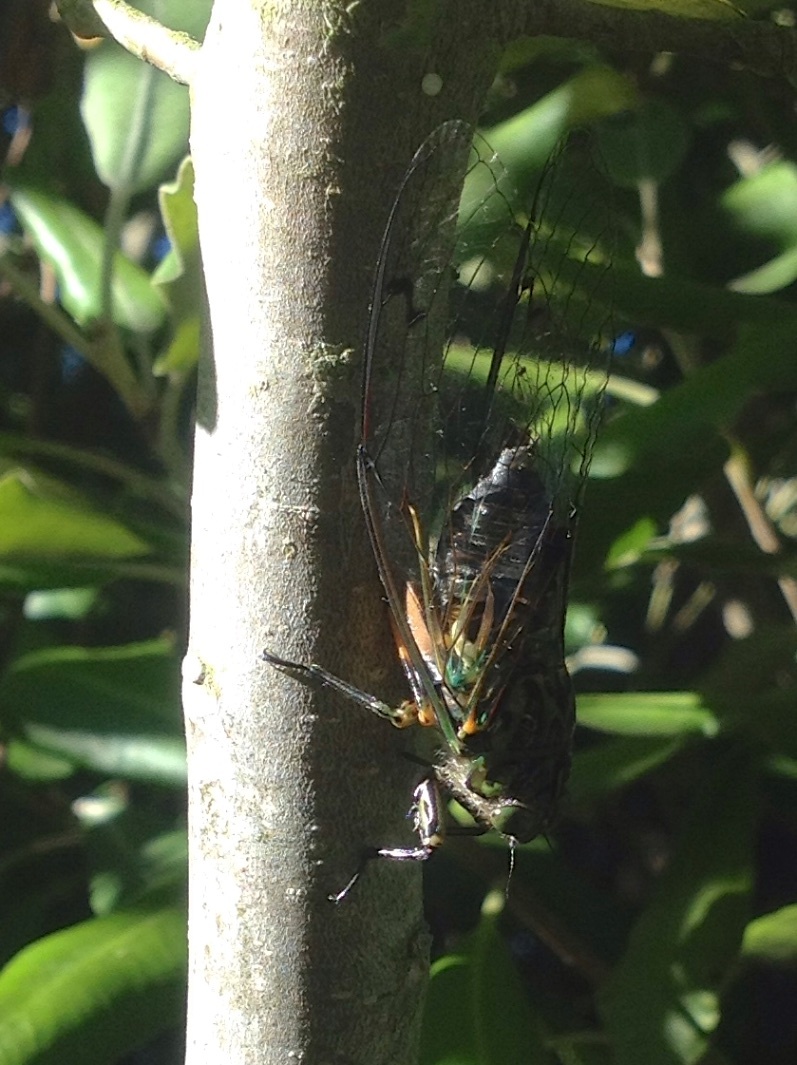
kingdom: Animalia
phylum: Arthropoda
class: Insecta
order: Hemiptera
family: Cicadidae
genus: Amphipsalta
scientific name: Amphipsalta zelandica
